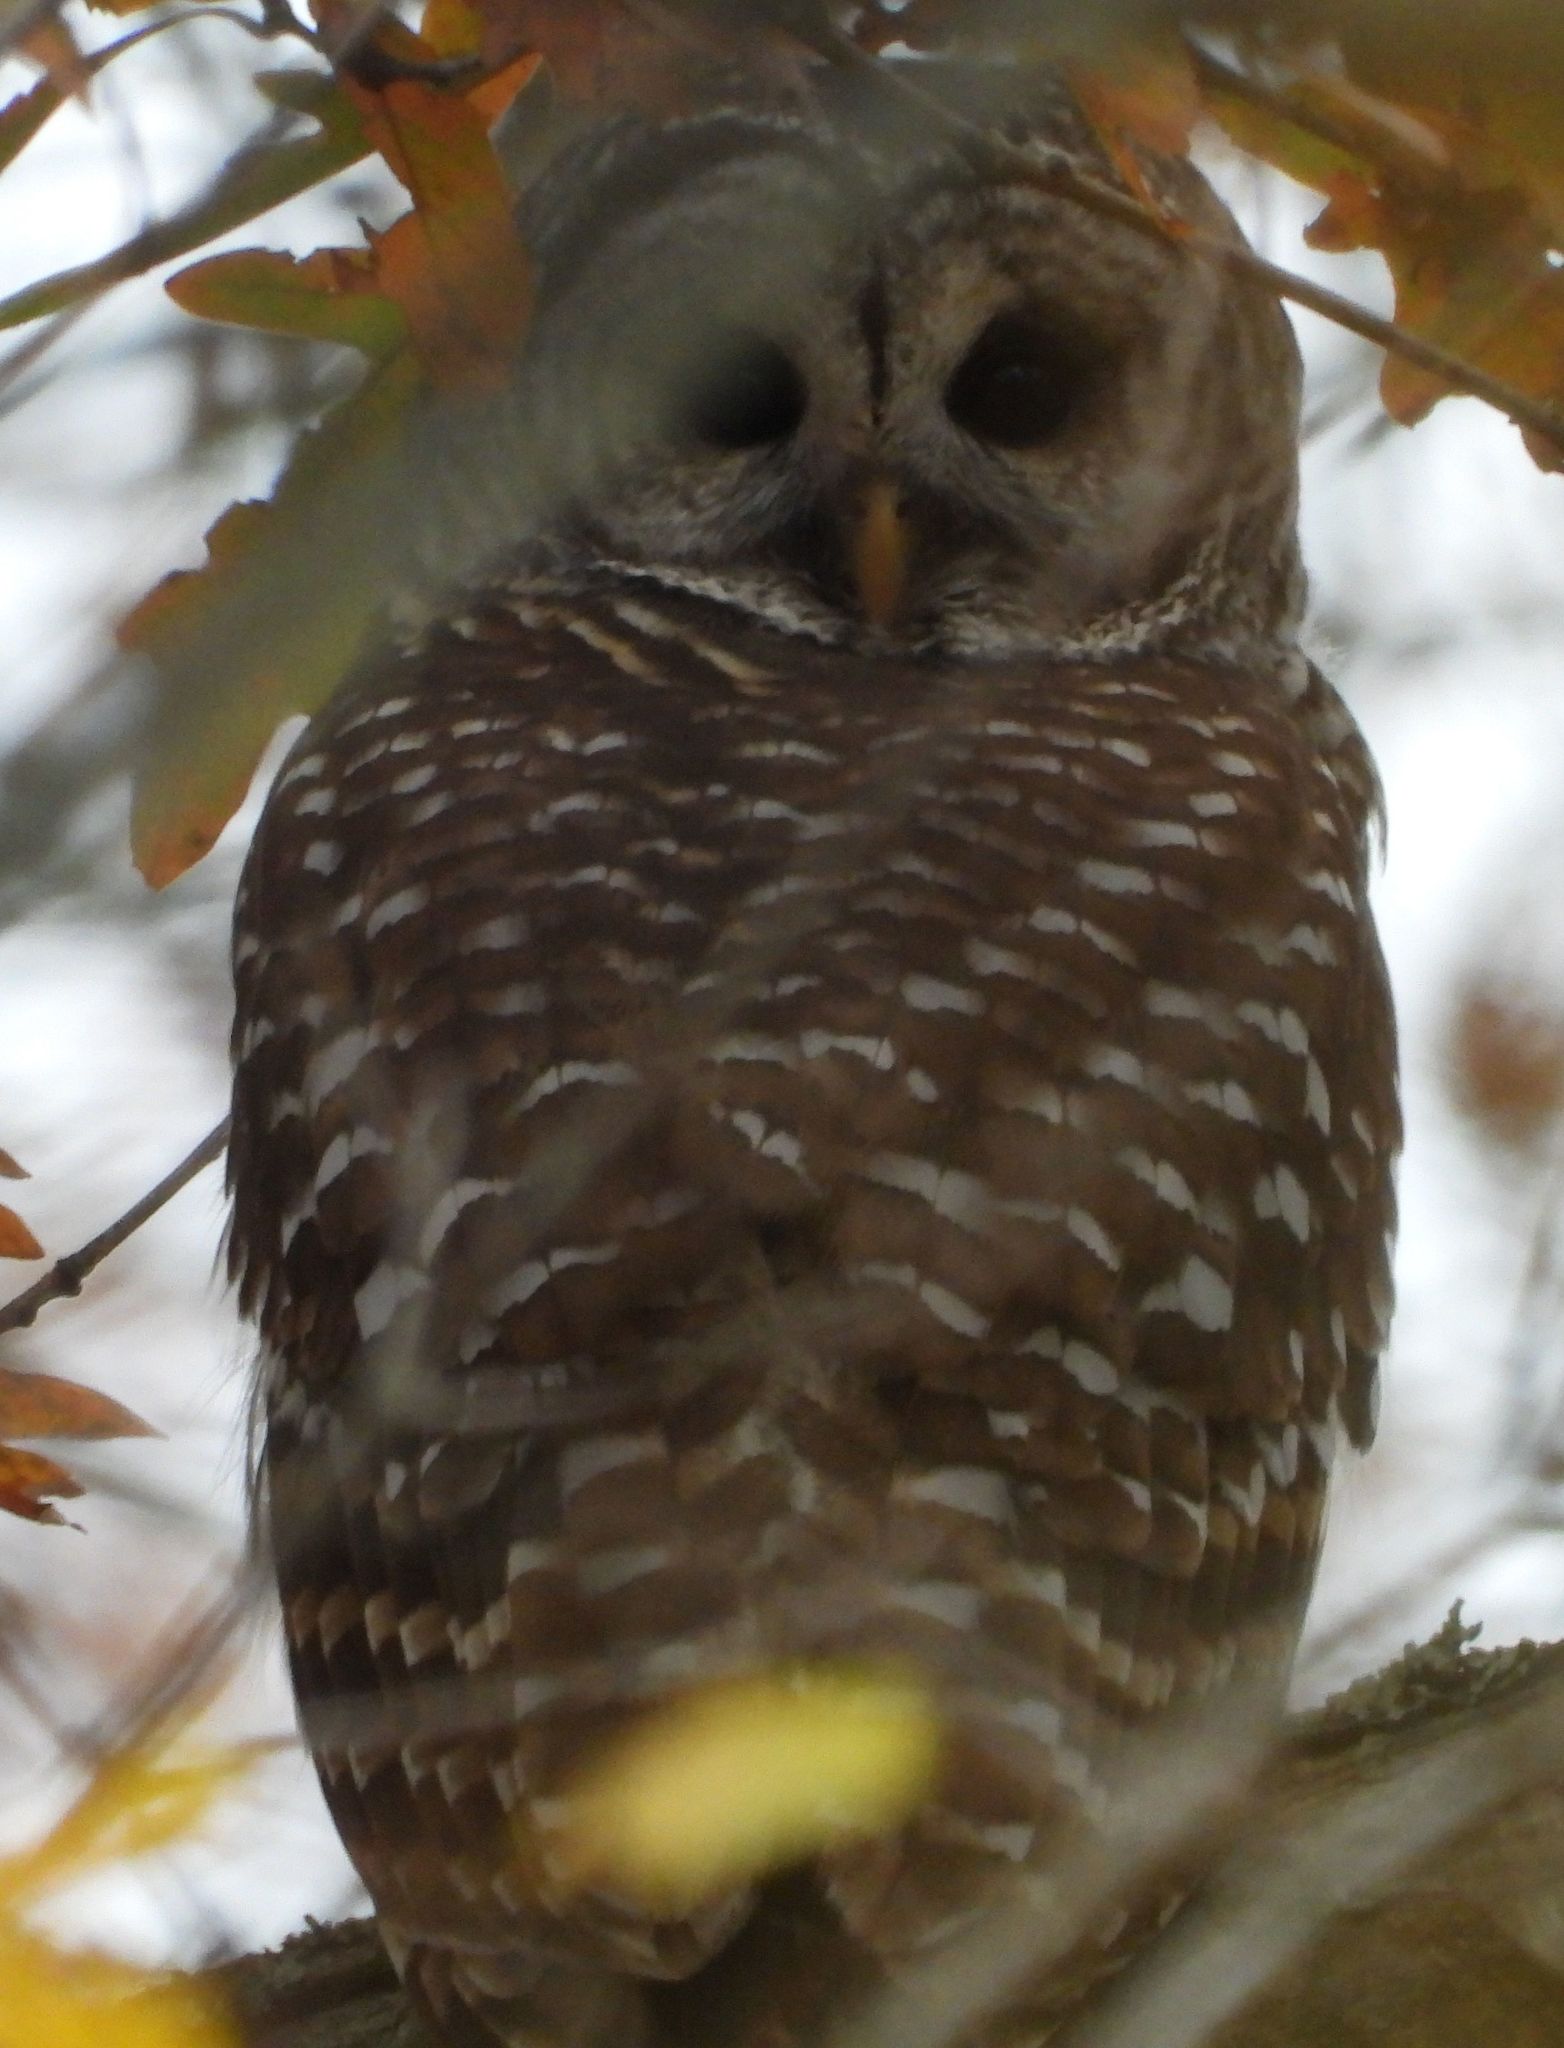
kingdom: Animalia
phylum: Chordata
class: Aves
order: Strigiformes
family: Strigidae
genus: Strix
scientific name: Strix varia
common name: Barred owl
